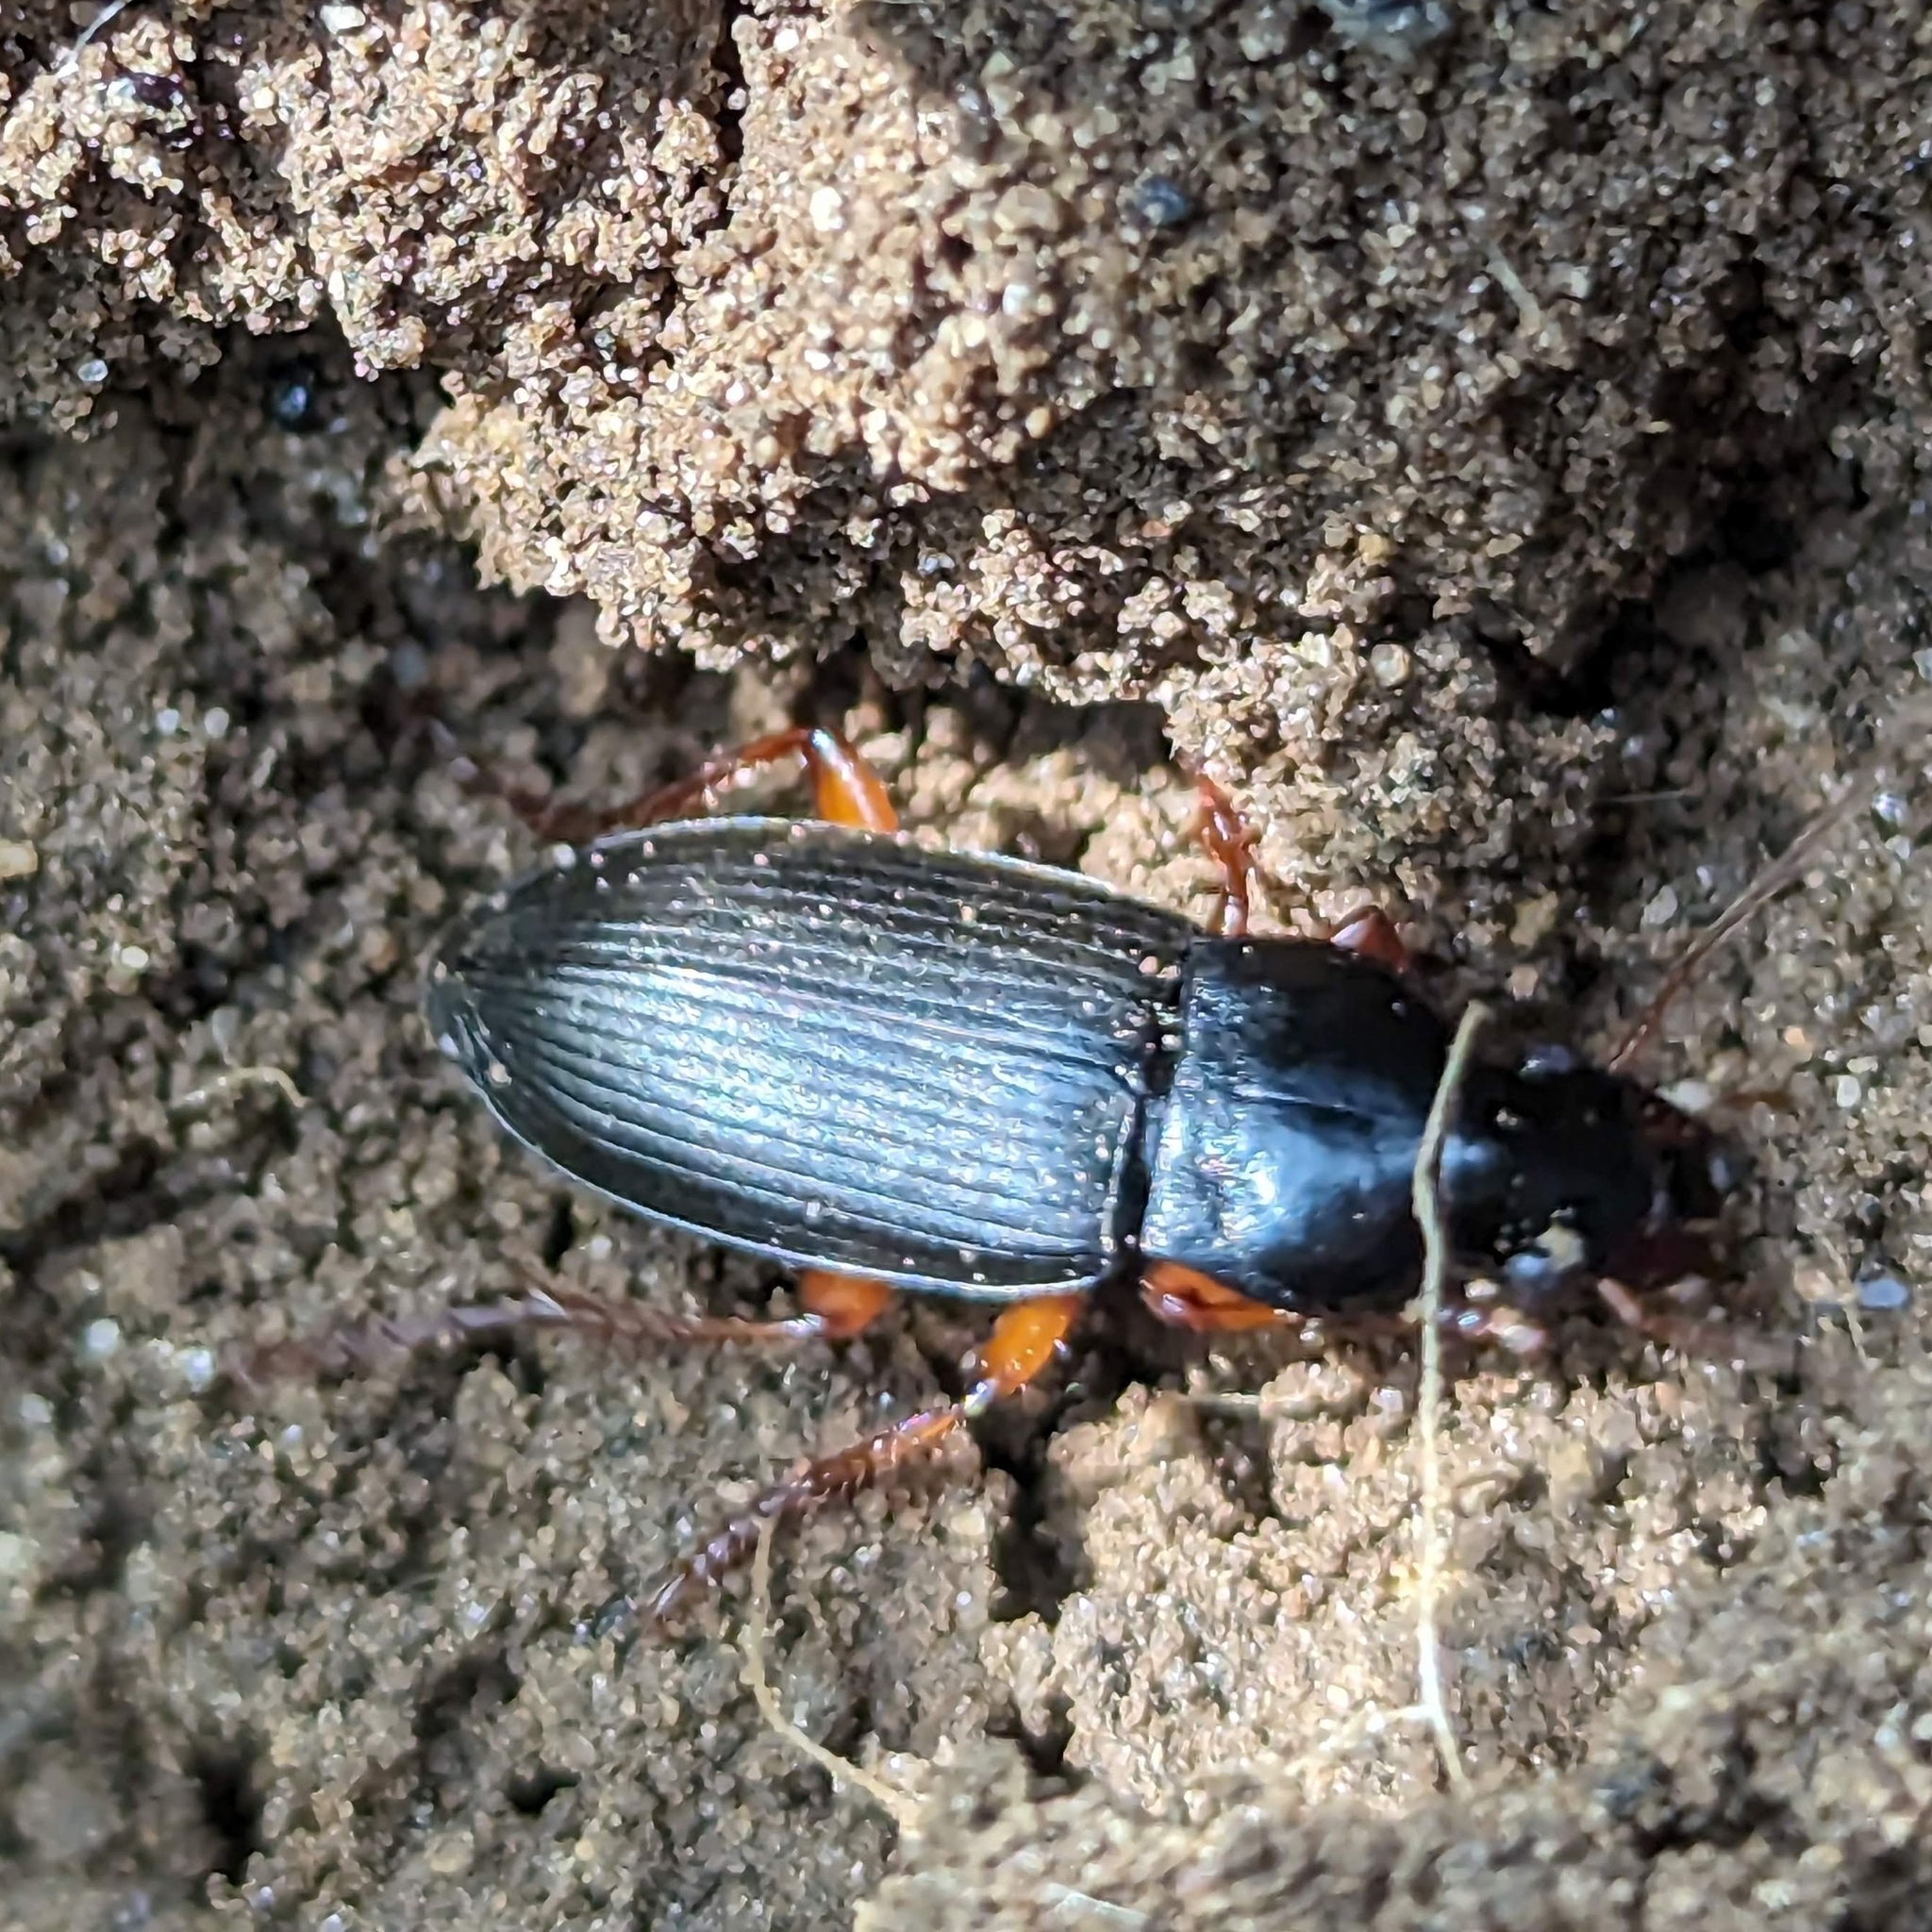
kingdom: Animalia
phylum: Arthropoda
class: Insecta
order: Coleoptera
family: Carabidae
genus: Harpalus
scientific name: Harpalus rufipes
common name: Strawberry harp ground beetle
